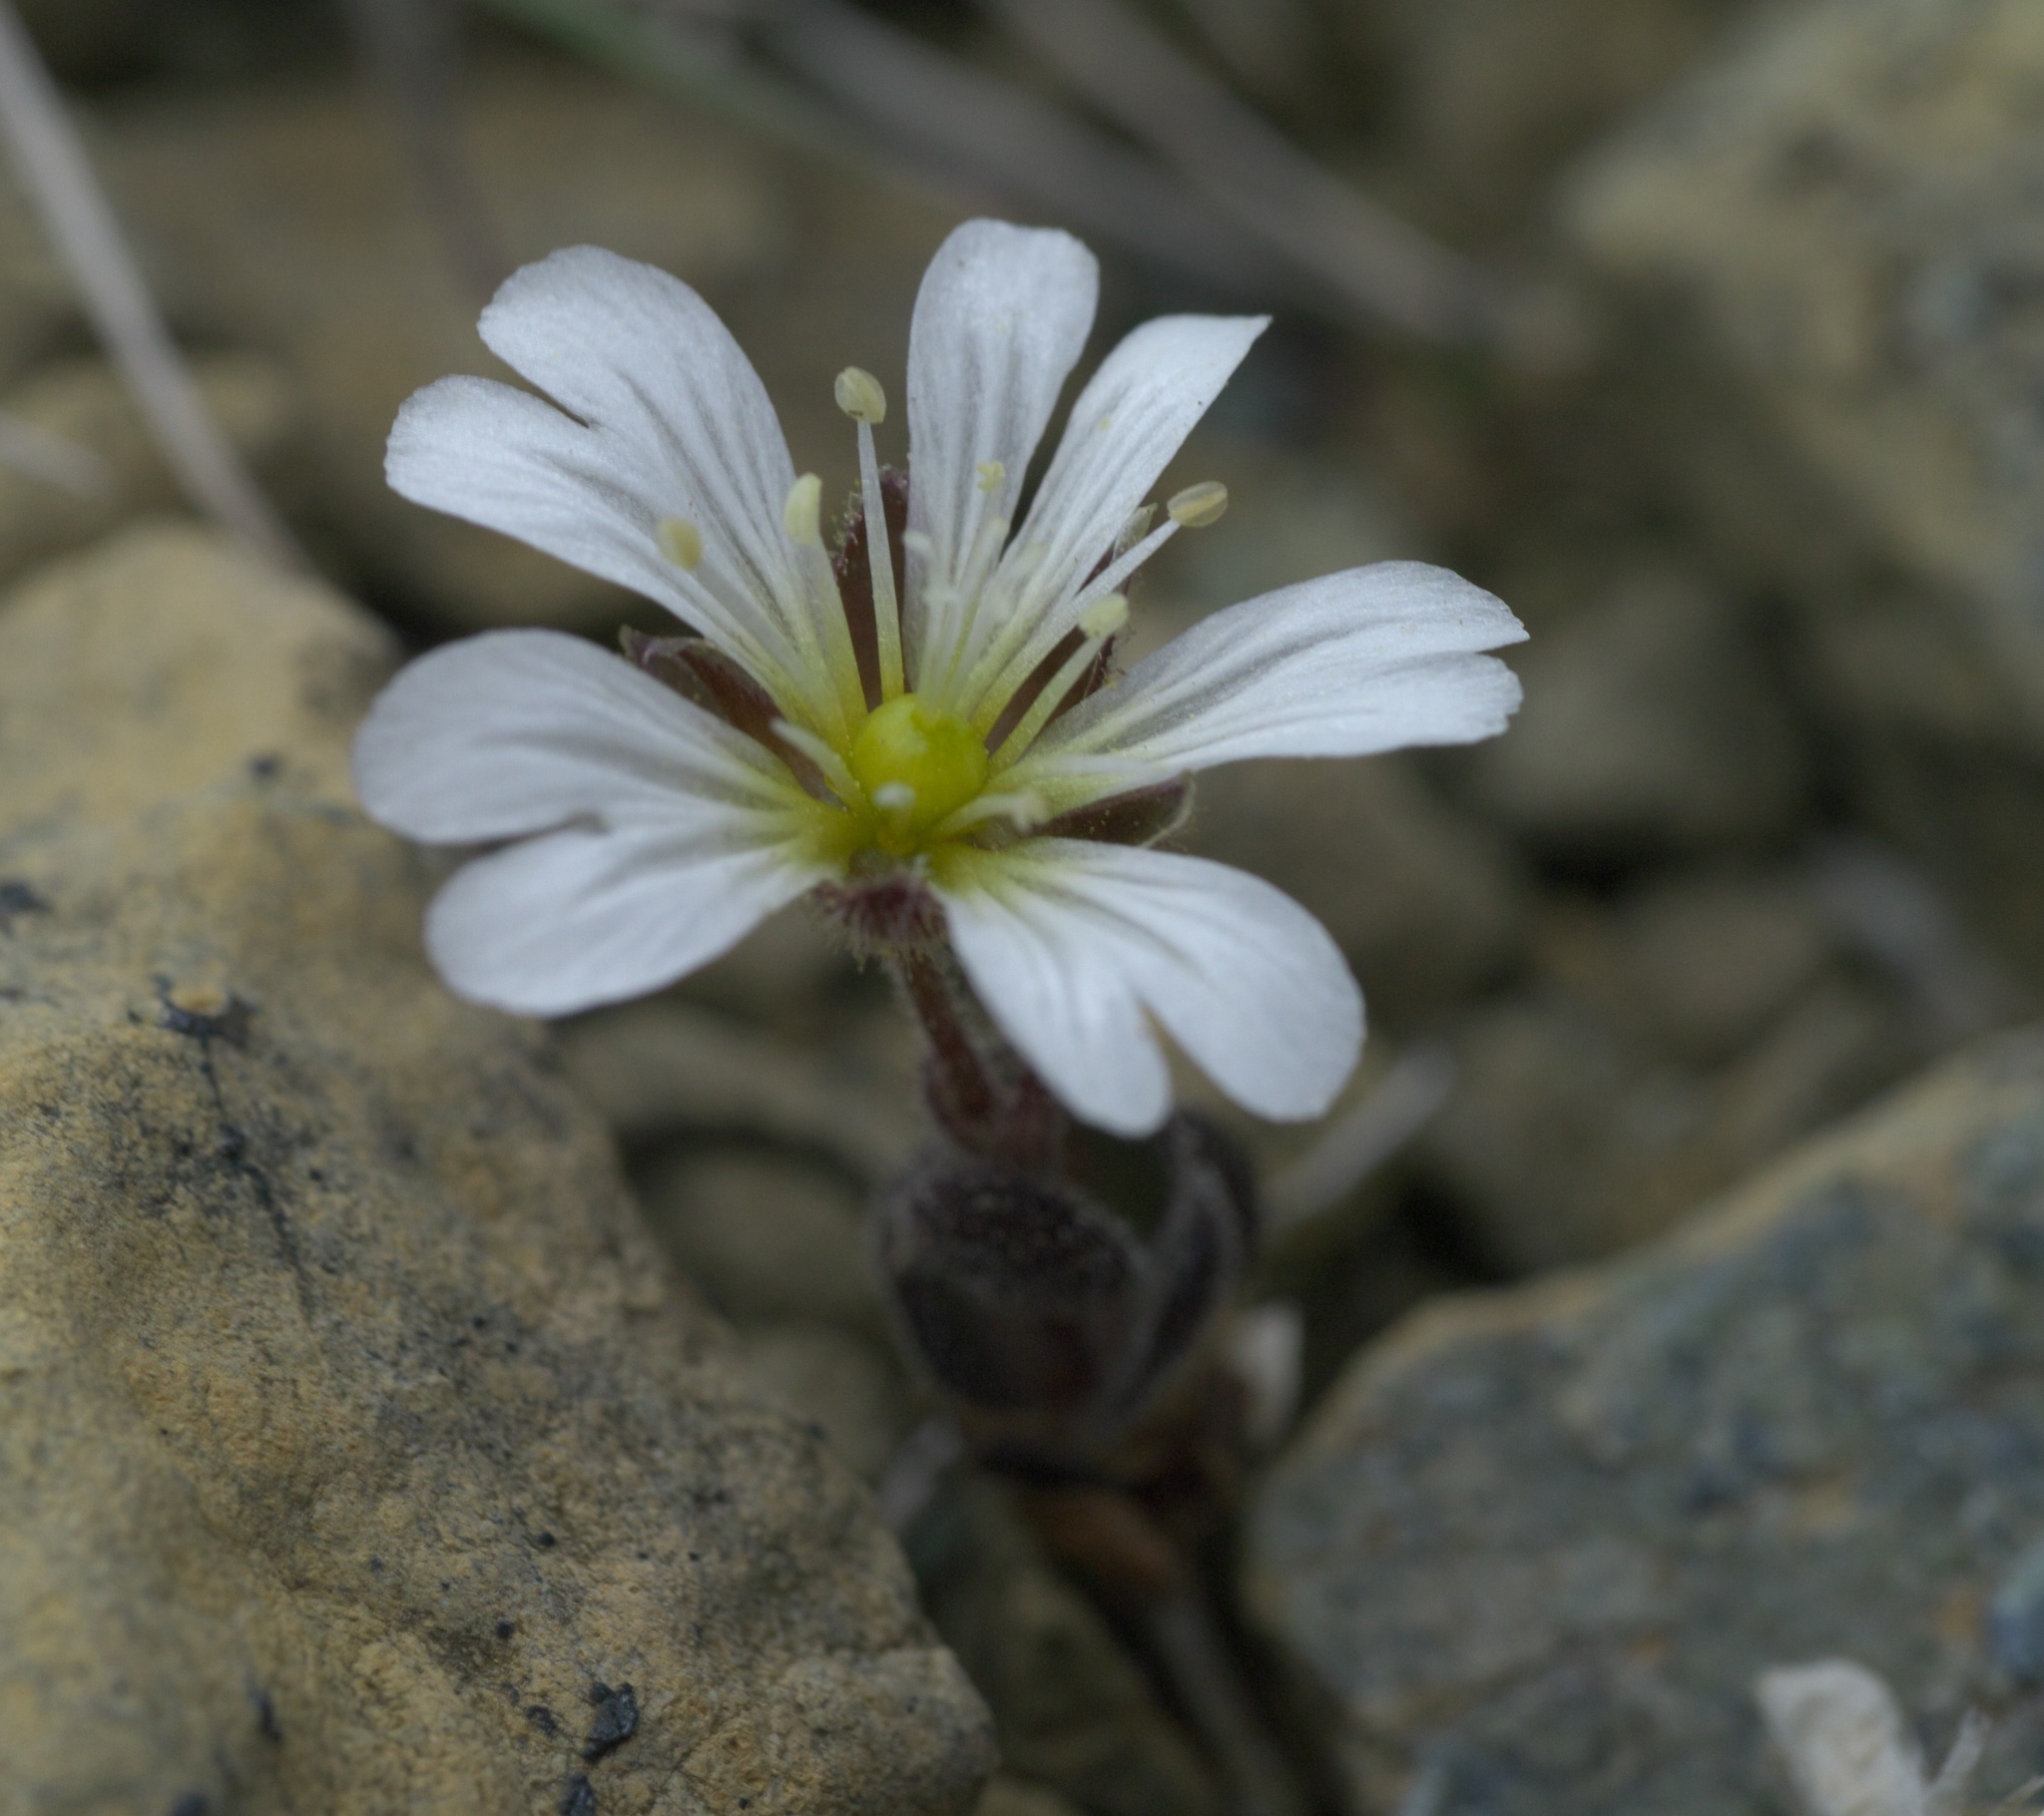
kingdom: Plantae
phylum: Tracheophyta
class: Magnoliopsida
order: Caryophyllales
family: Caryophyllaceae
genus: Cerastium
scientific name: Cerastium nigrescens
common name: Shetland mouse-ear
